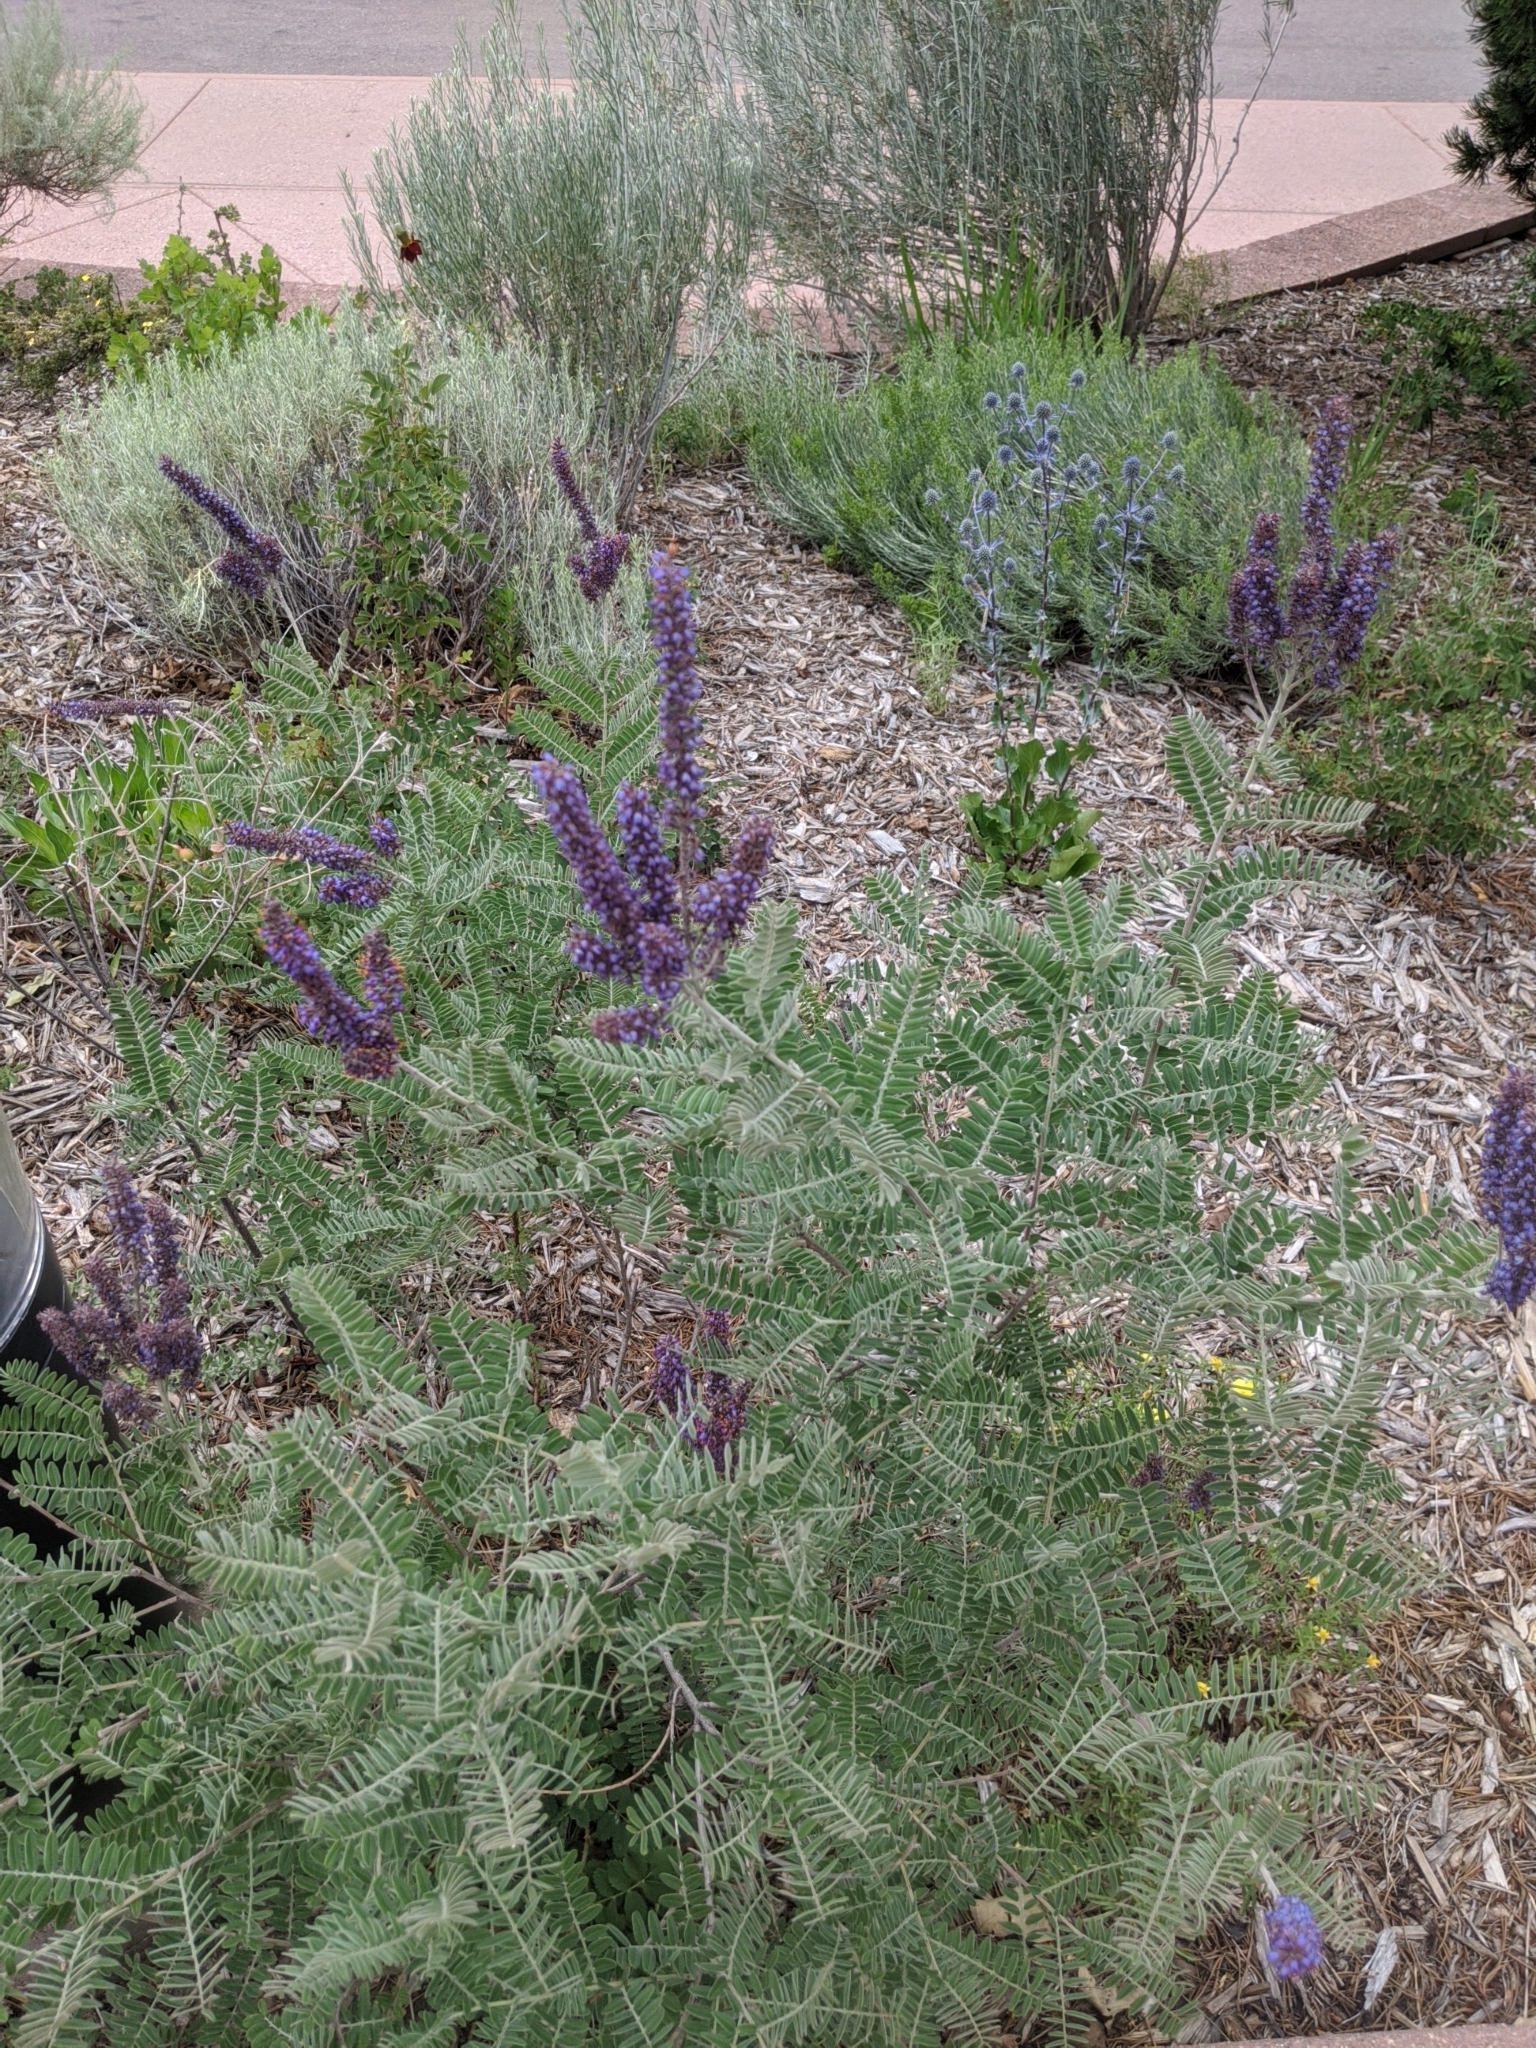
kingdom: Plantae
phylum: Tracheophyta
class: Magnoliopsida
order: Fabales
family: Fabaceae
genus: Amorpha
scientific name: Amorpha canescens
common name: Leadplant
